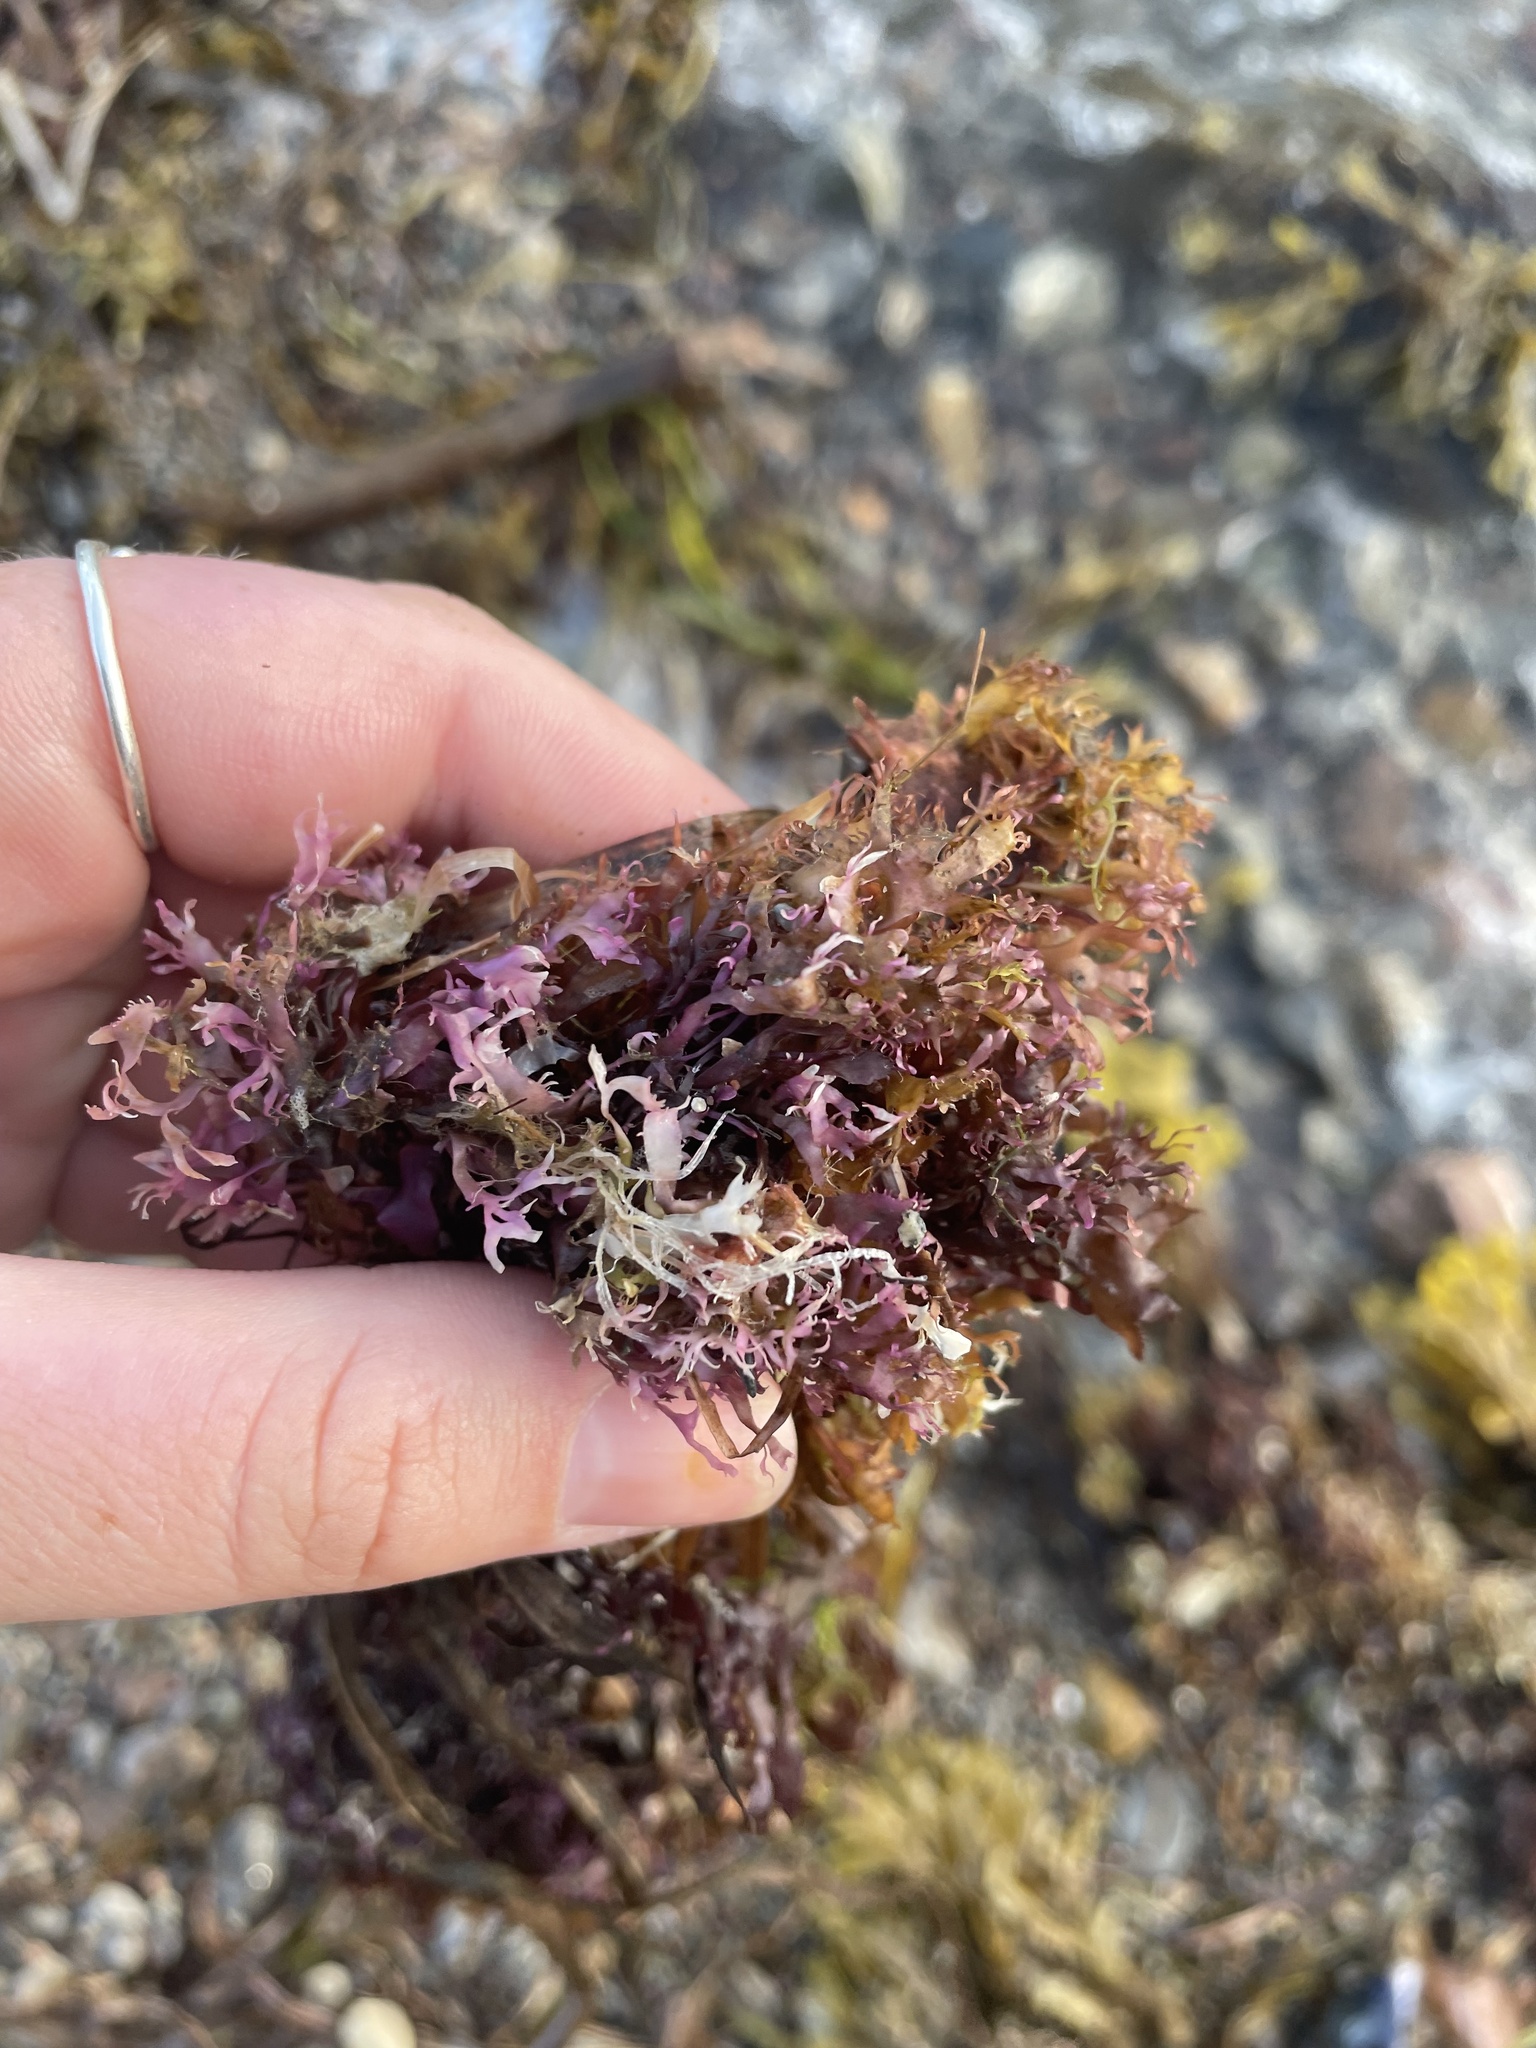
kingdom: Plantae
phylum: Rhodophyta
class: Florideophyceae
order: Gigartinales
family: Gigartinaceae
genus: Chondrus
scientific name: Chondrus crispus
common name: Carrageen
